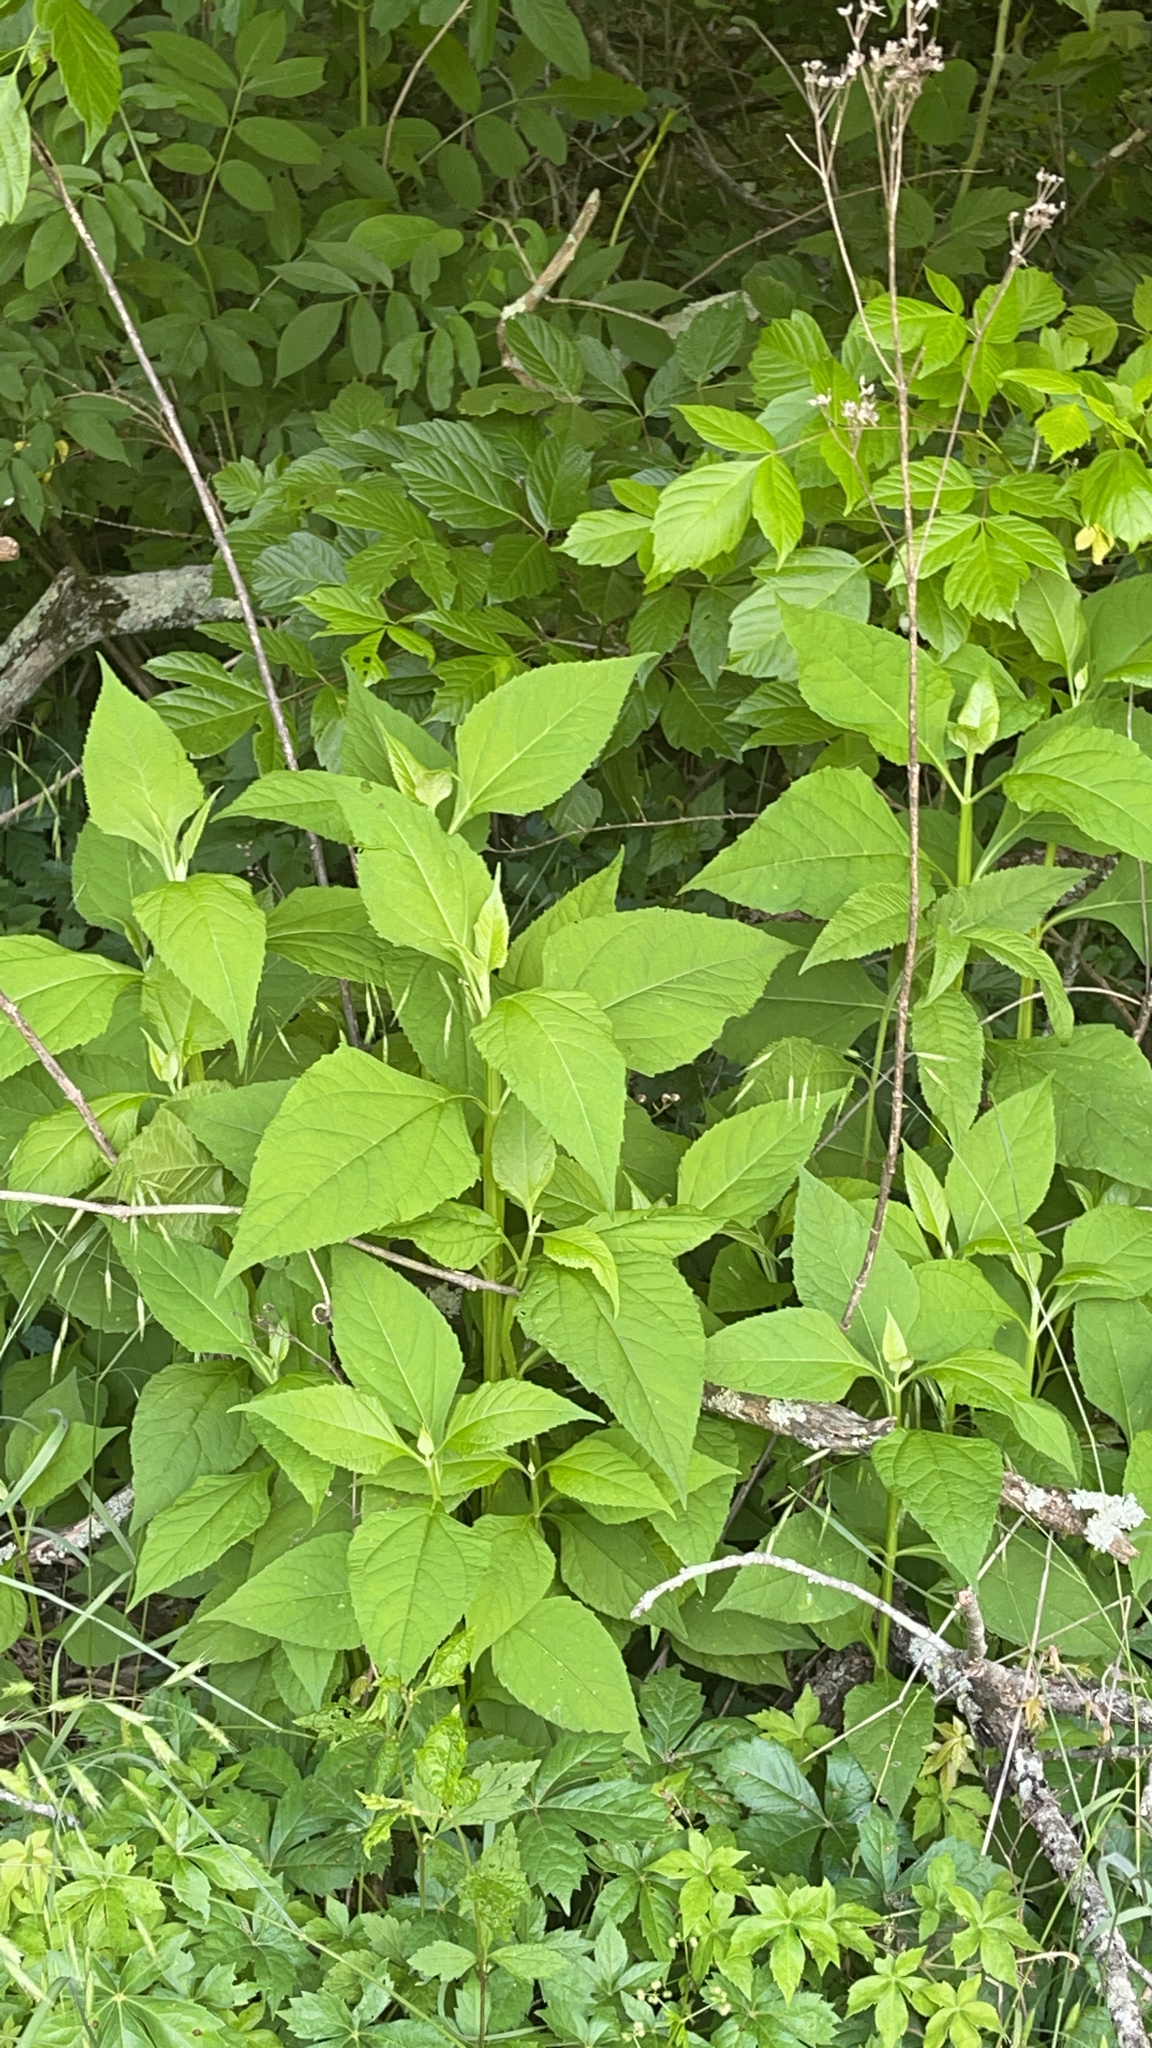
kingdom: Plantae
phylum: Tracheophyta
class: Magnoliopsida
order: Asterales
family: Asteraceae
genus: Verbesina
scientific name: Verbesina occidentalis
